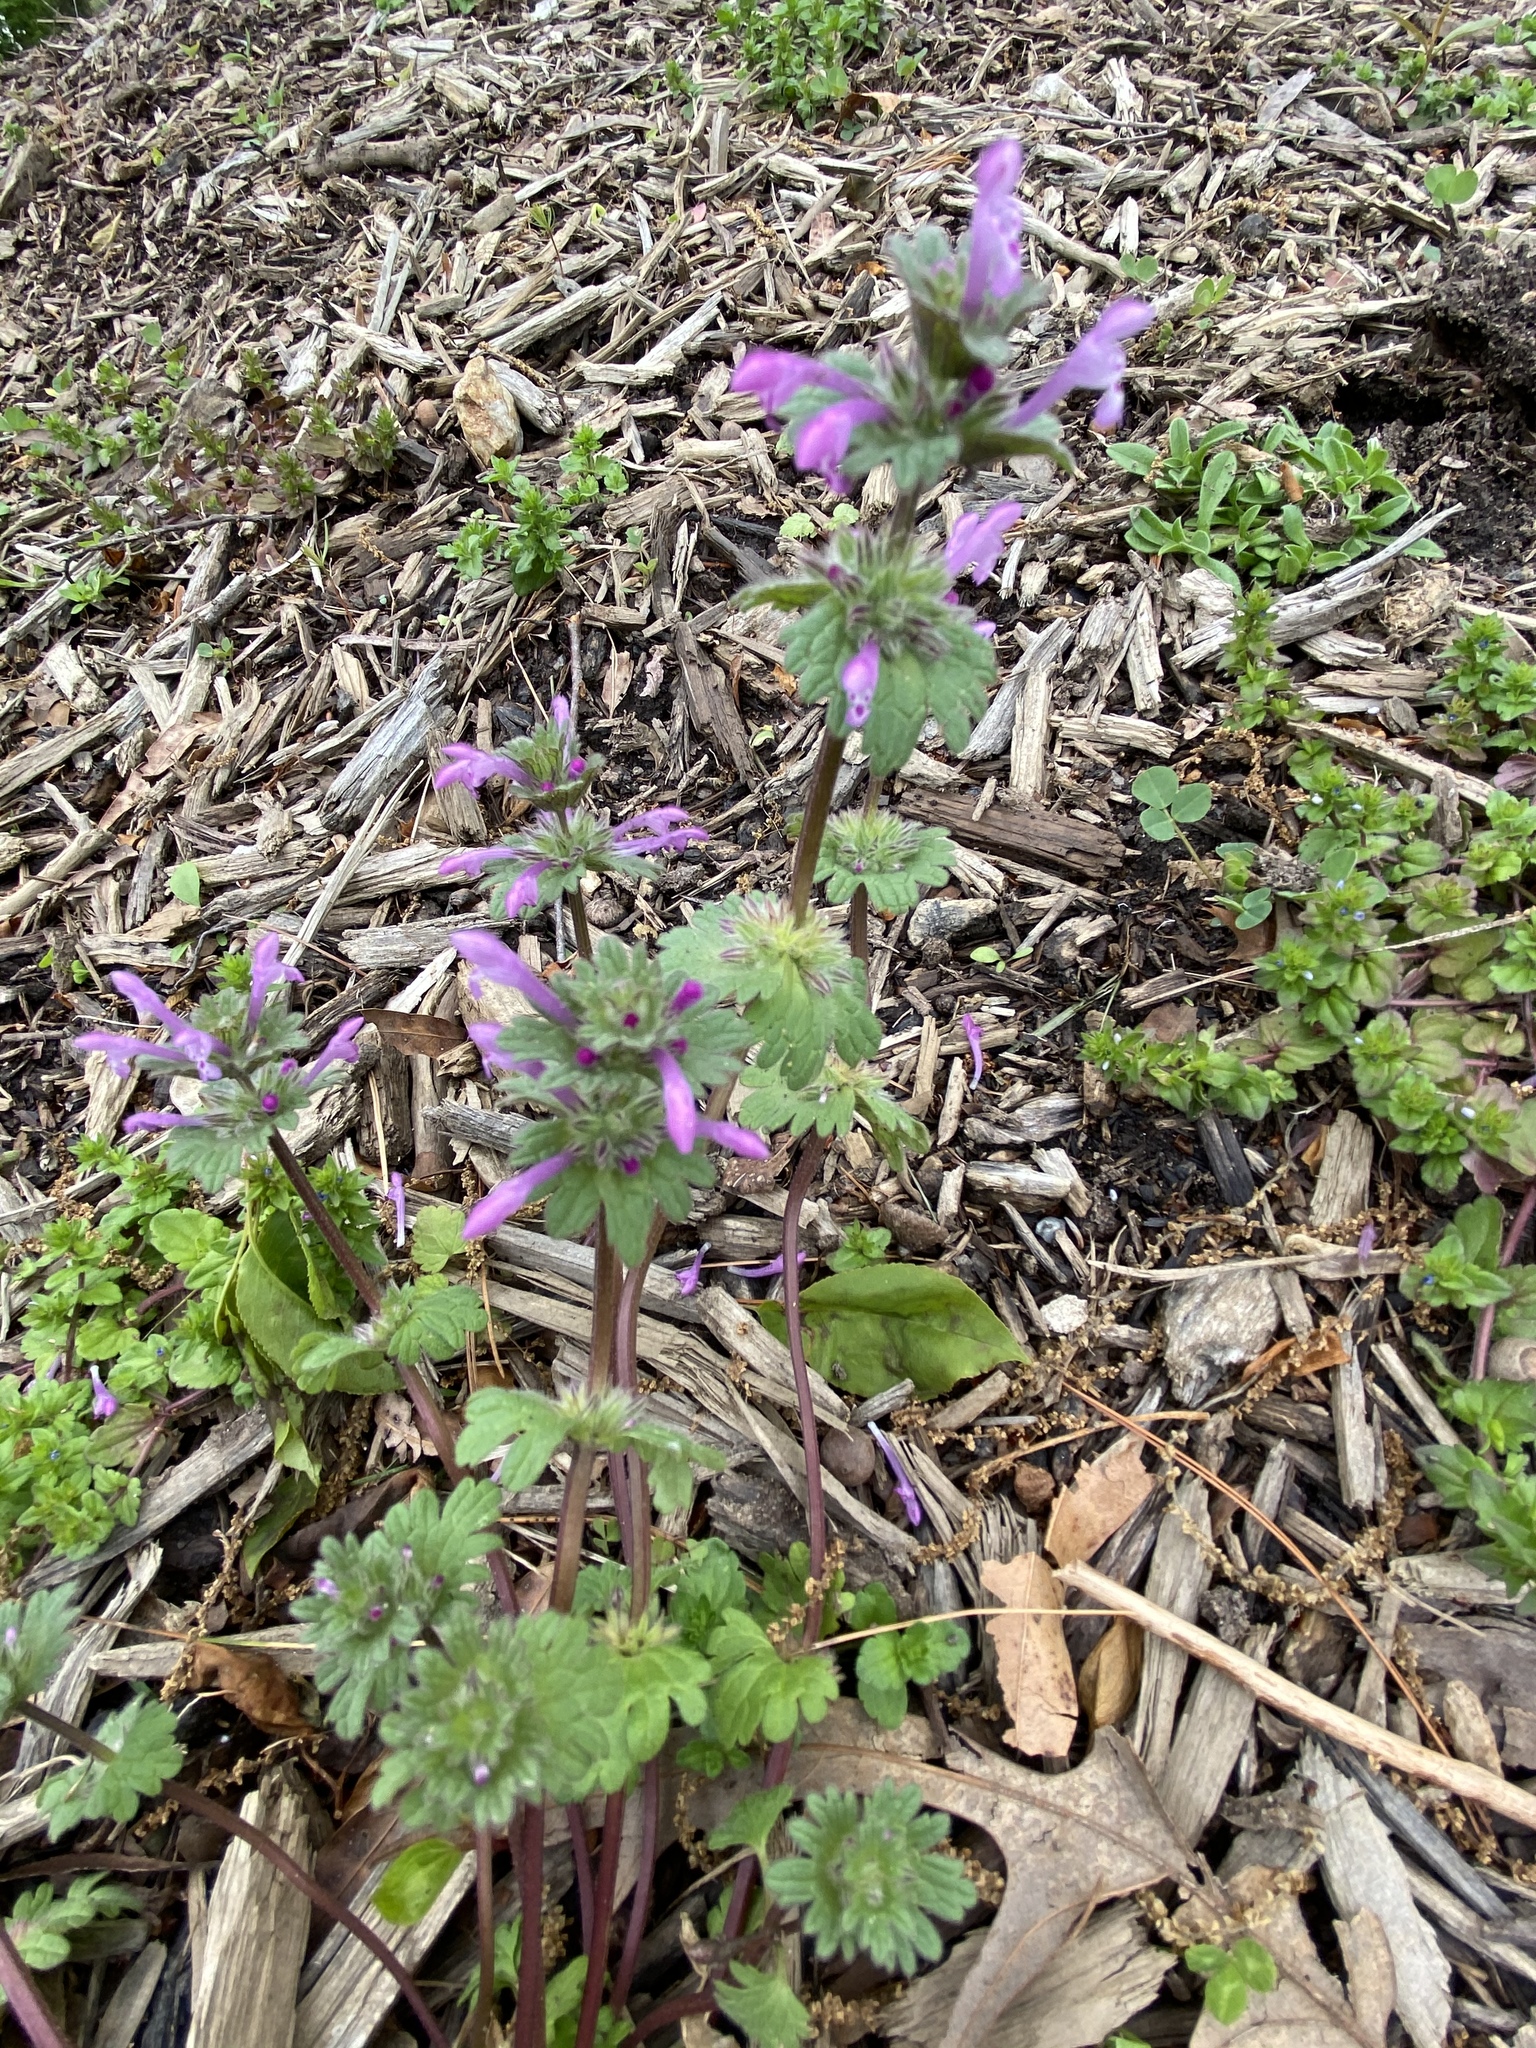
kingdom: Plantae
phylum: Tracheophyta
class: Magnoliopsida
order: Lamiales
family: Lamiaceae
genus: Lamium
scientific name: Lamium amplexicaule
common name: Henbit dead-nettle
